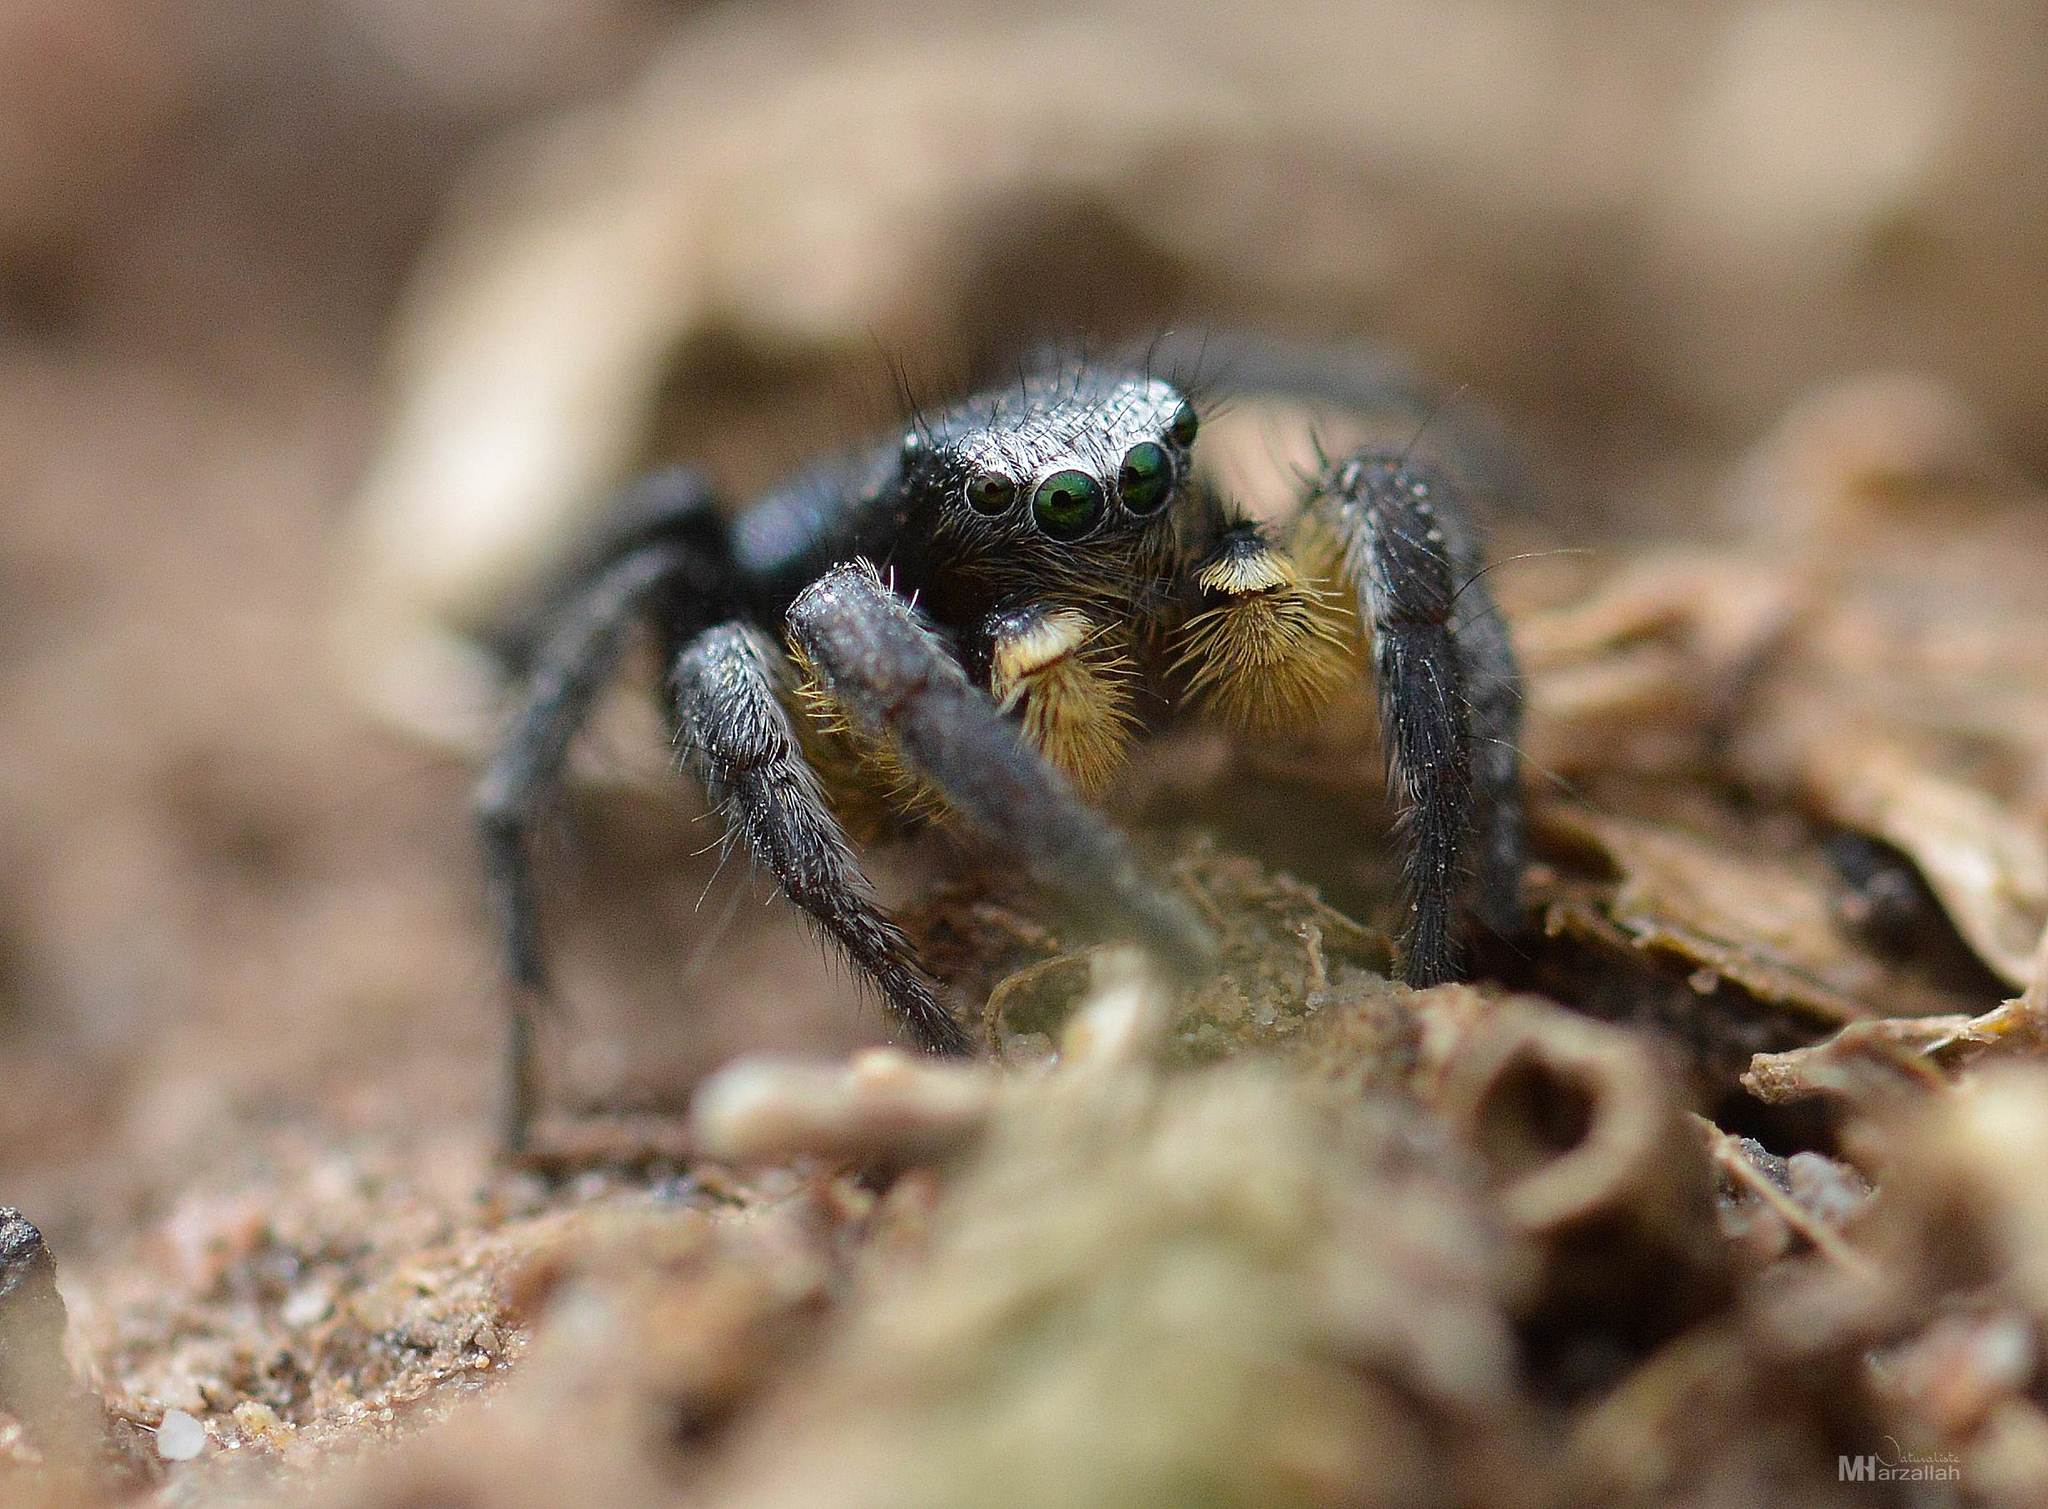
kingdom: Animalia
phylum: Arthropoda
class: Arachnida
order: Araneae
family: Salticidae
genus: Phlegra
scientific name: Phlegra nitidiventris
